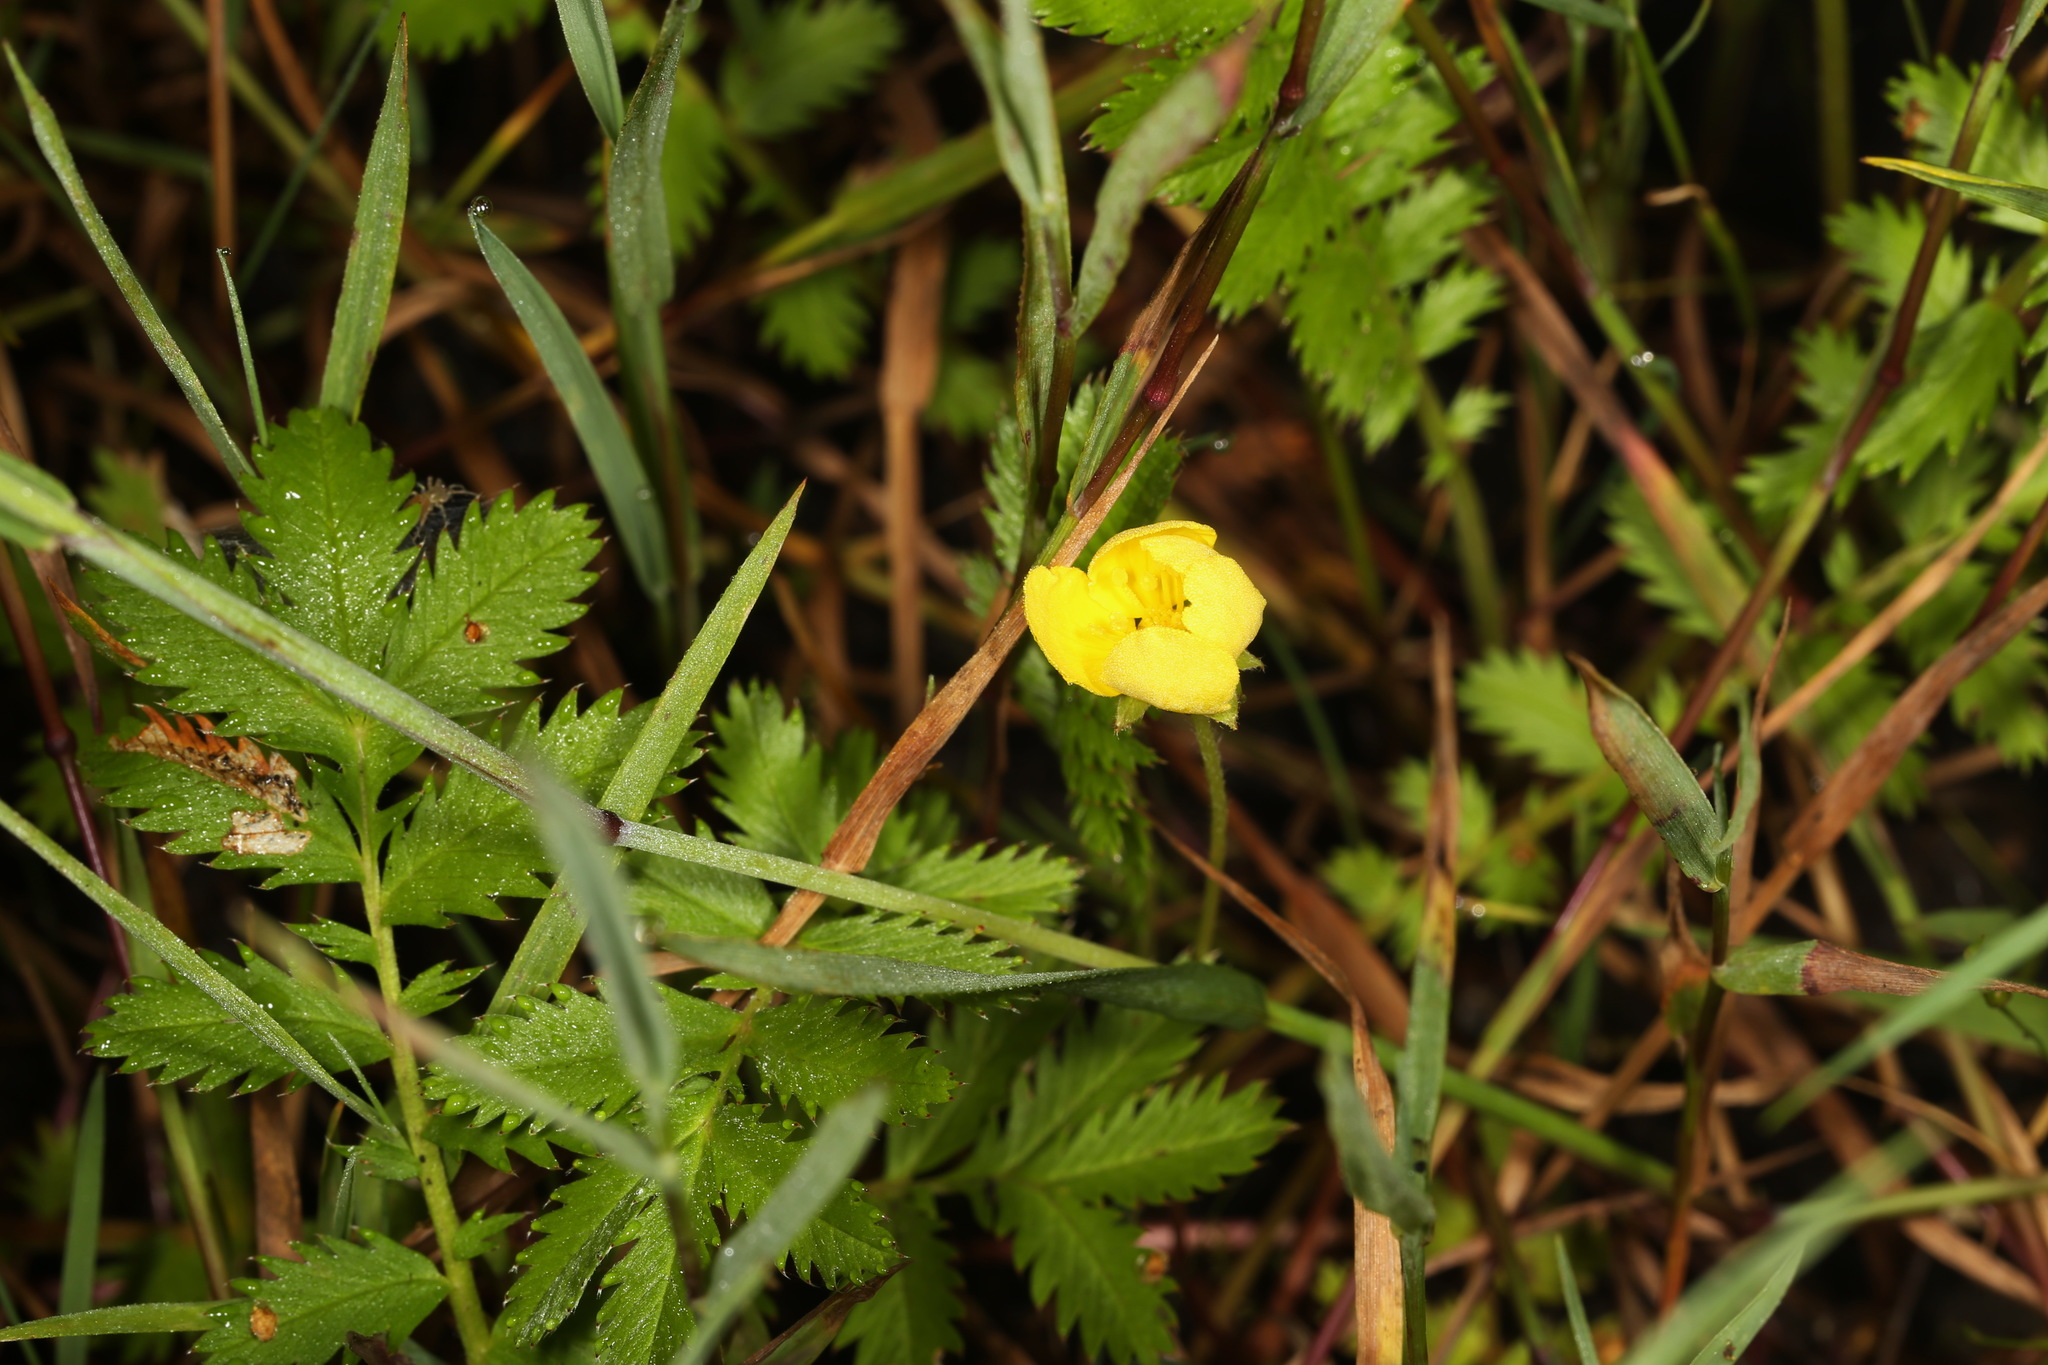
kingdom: Plantae
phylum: Tracheophyta
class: Magnoliopsida
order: Rosales
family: Rosaceae
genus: Argentina
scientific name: Argentina anserina
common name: Common silverweed
